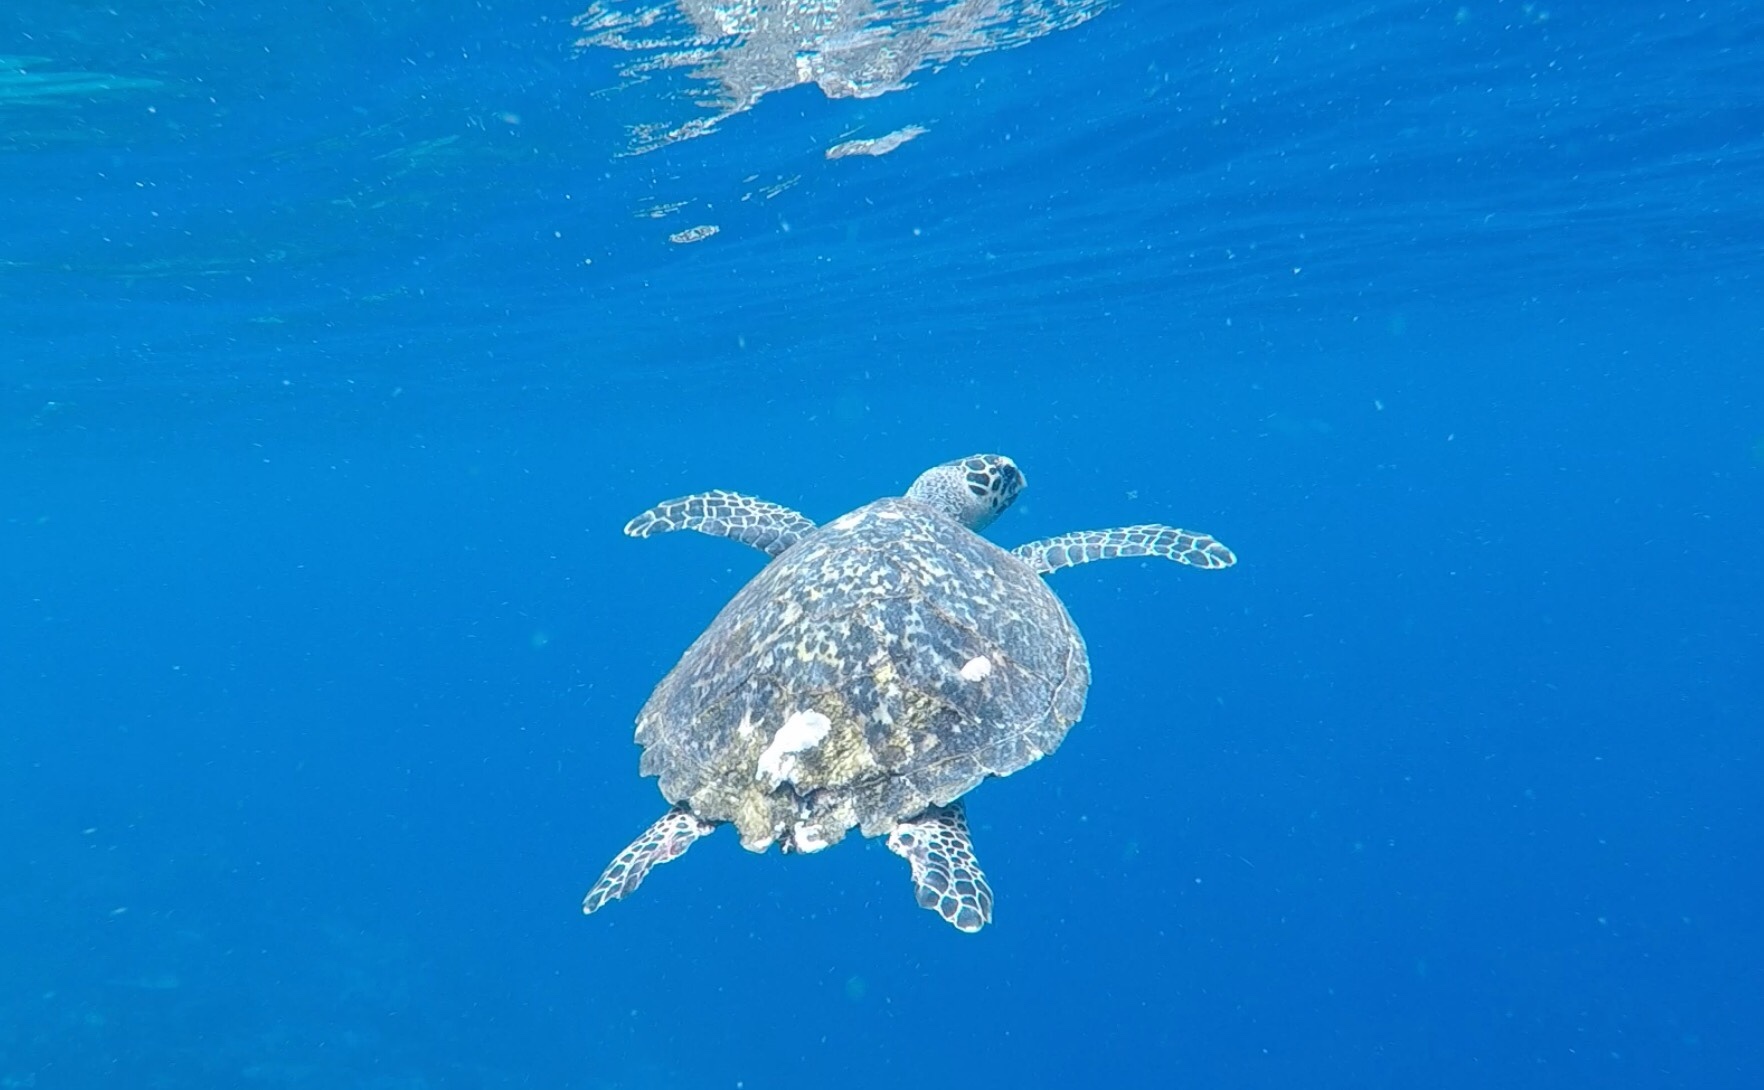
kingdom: Animalia
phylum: Chordata
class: Testudines
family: Cheloniidae
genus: Eretmochelys
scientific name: Eretmochelys imbricata
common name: Hawksbill turtle
